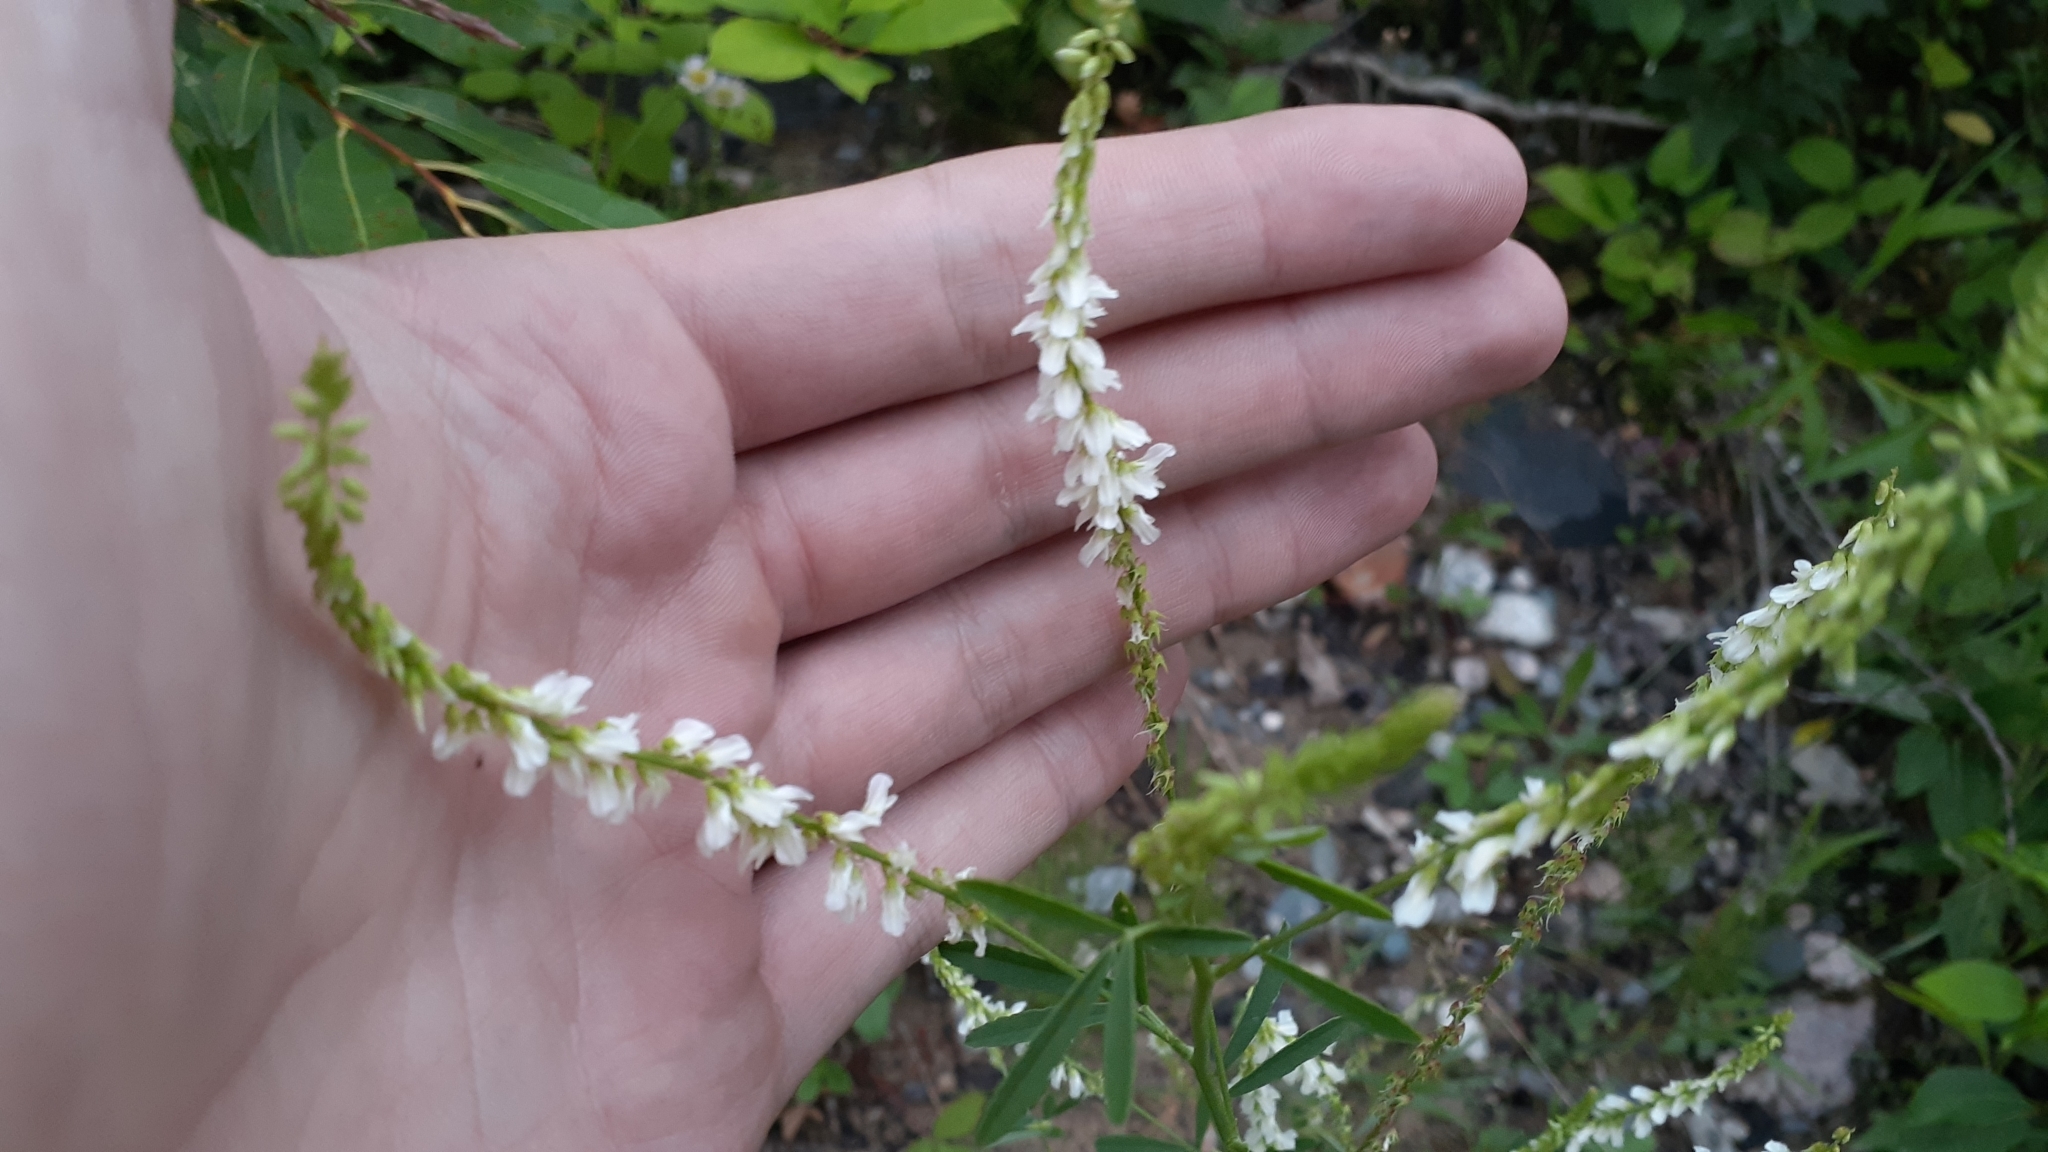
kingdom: Plantae
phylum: Tracheophyta
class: Magnoliopsida
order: Fabales
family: Fabaceae
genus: Melilotus
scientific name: Melilotus albus
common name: White melilot
